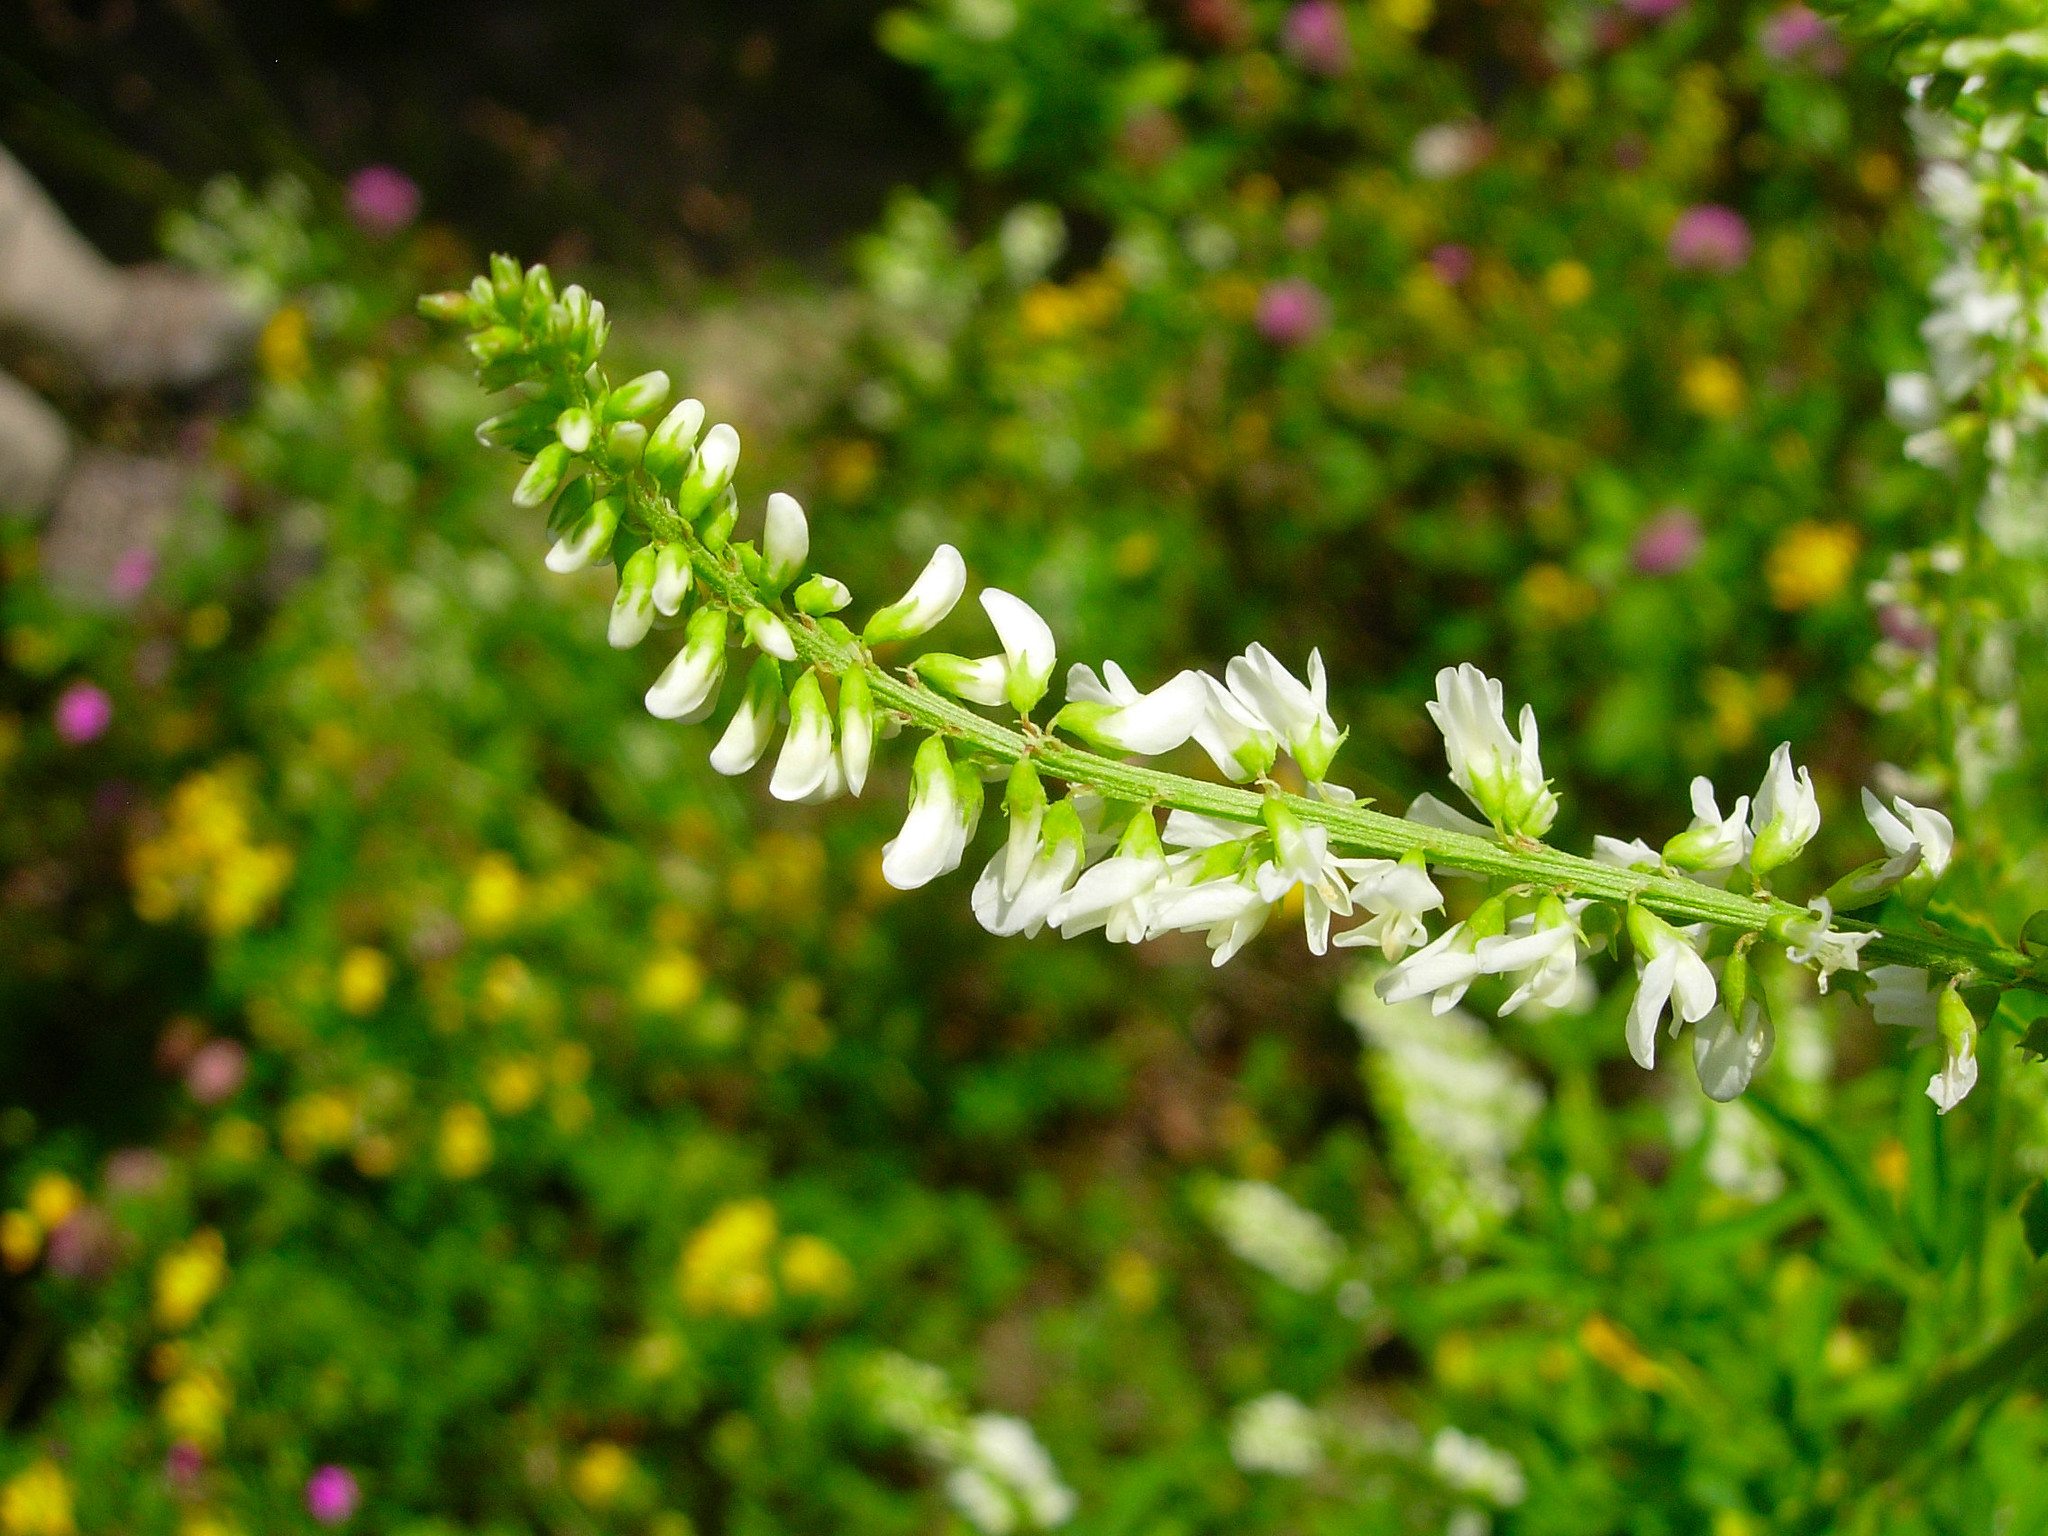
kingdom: Plantae
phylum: Tracheophyta
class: Magnoliopsida
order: Fabales
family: Fabaceae
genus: Melilotus
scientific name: Melilotus albus
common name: White melilot
